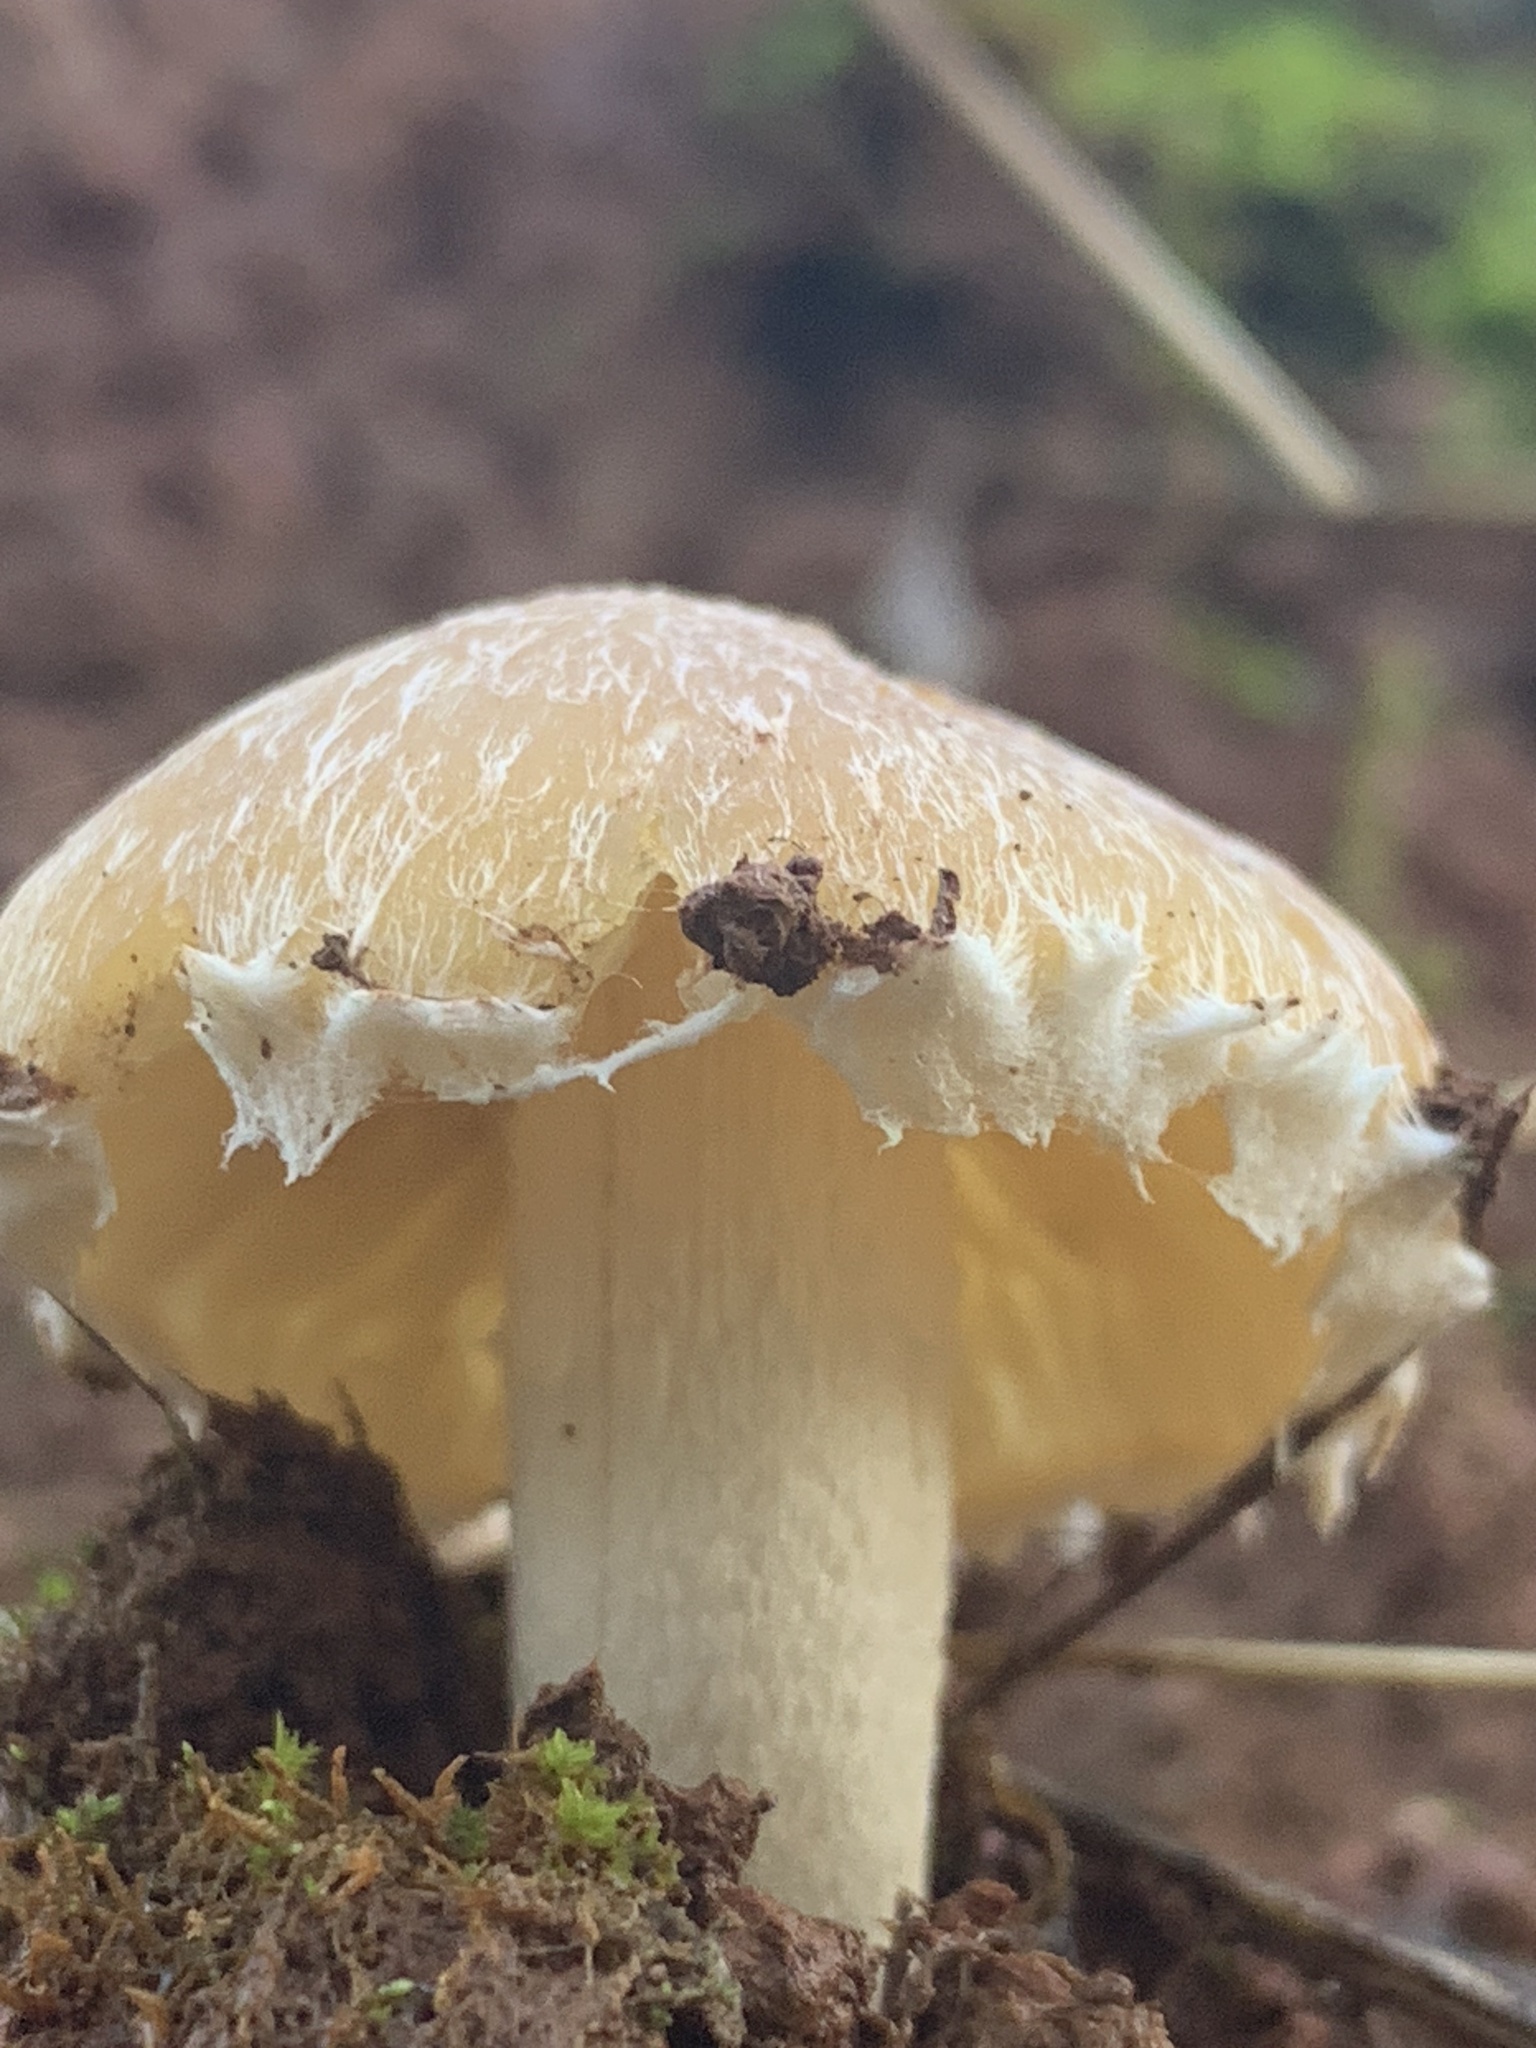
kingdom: Fungi
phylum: Basidiomycota
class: Agaricomycetes
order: Agaricales
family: Psathyrellaceae
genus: Candolleomyces
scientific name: Candolleomyces candolleanus
